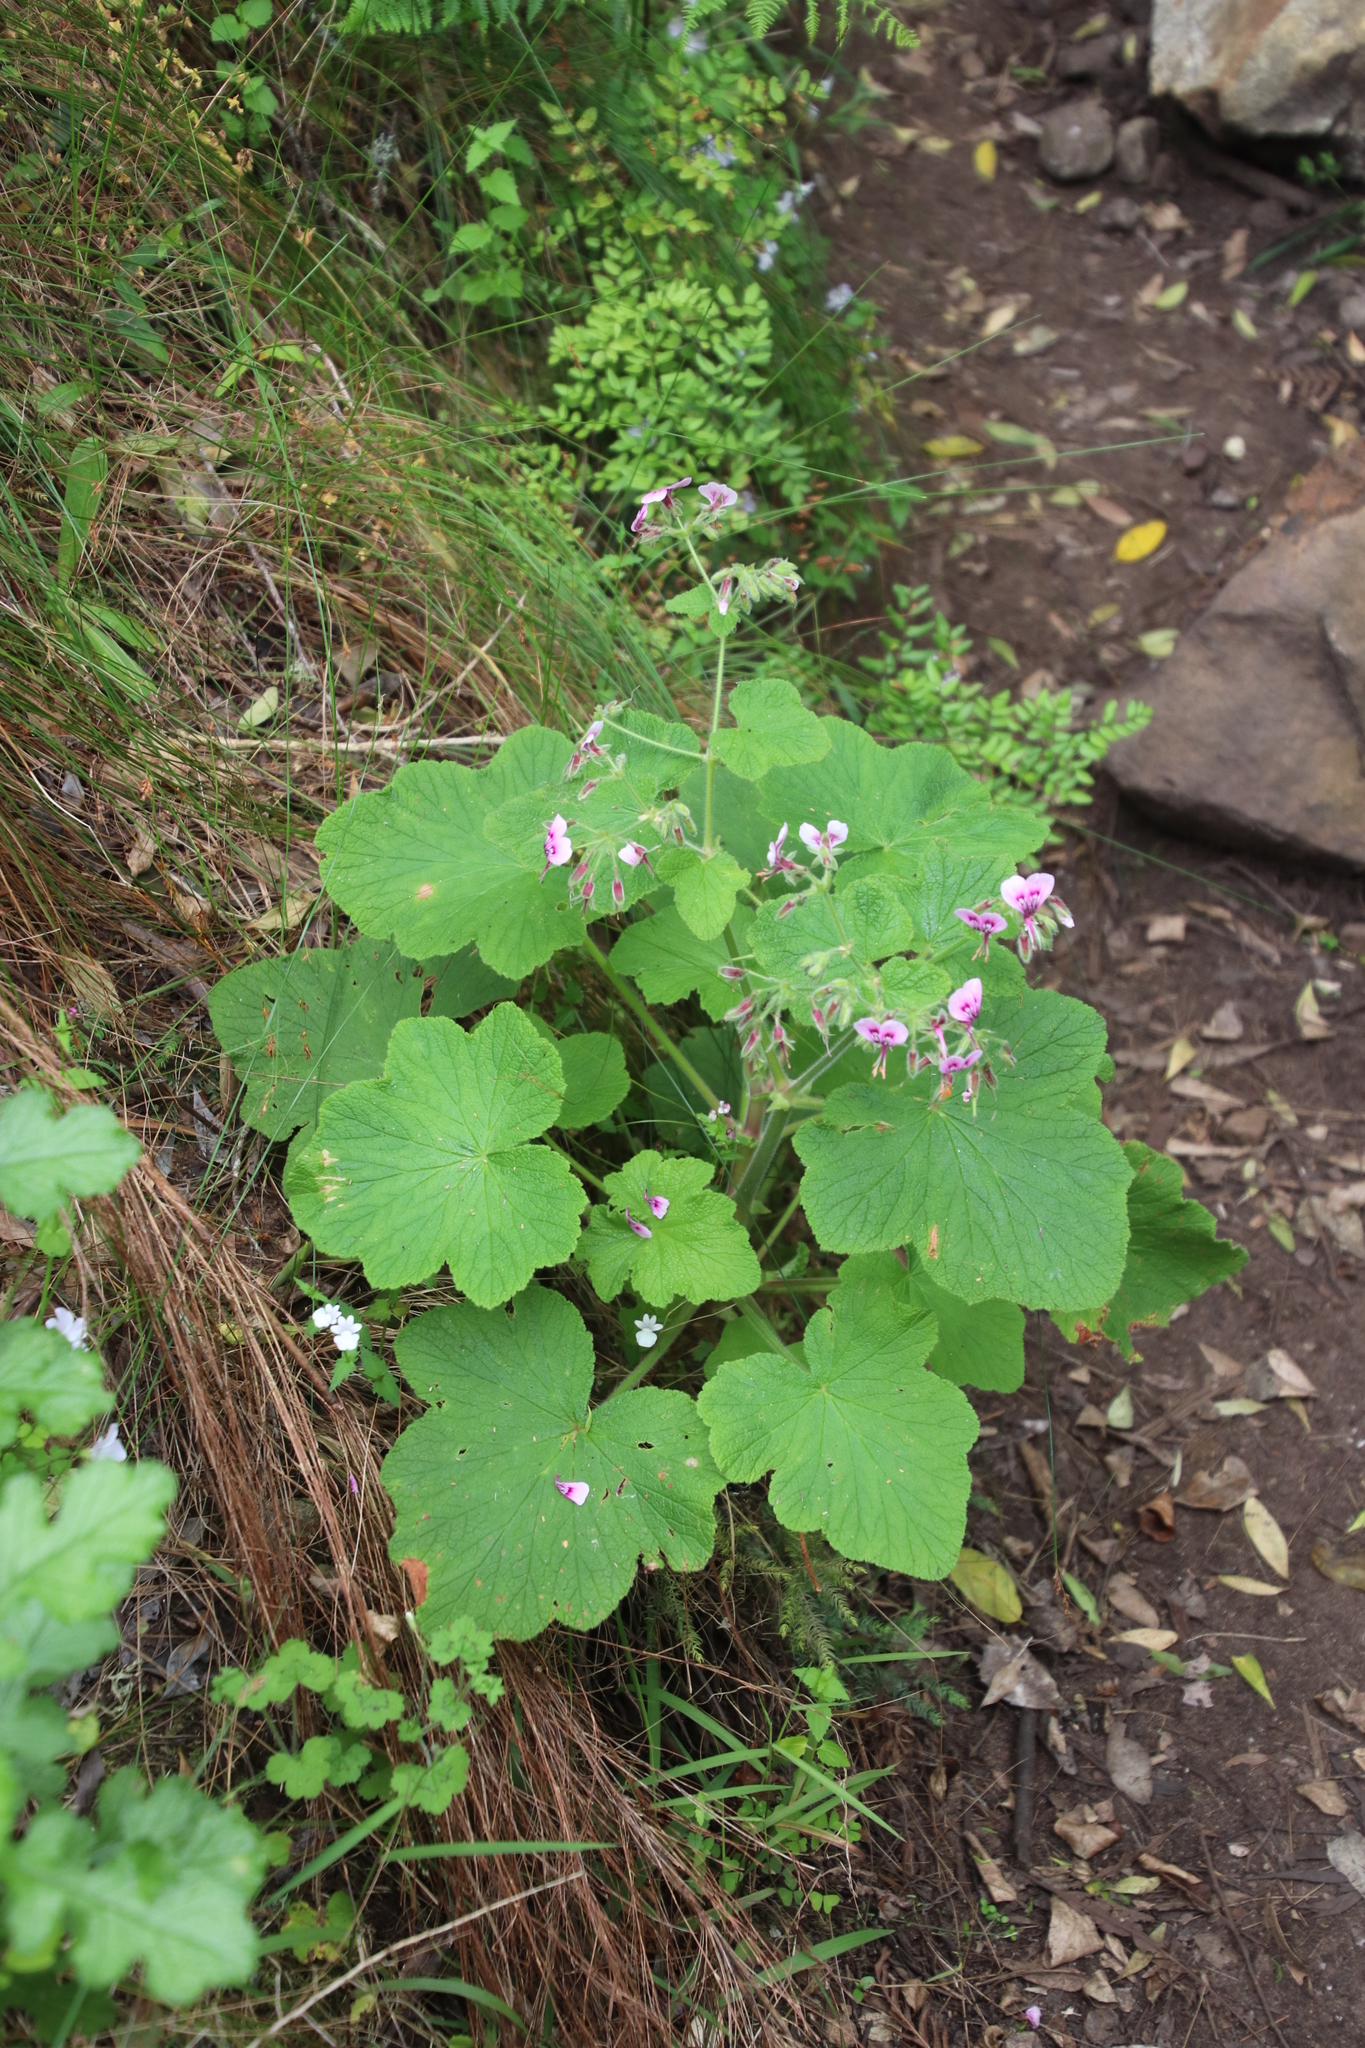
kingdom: Plantae
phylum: Tracheophyta
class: Magnoliopsida
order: Geraniales
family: Geraniaceae
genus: Pelargonium
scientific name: Pelargonium papilionaceum
